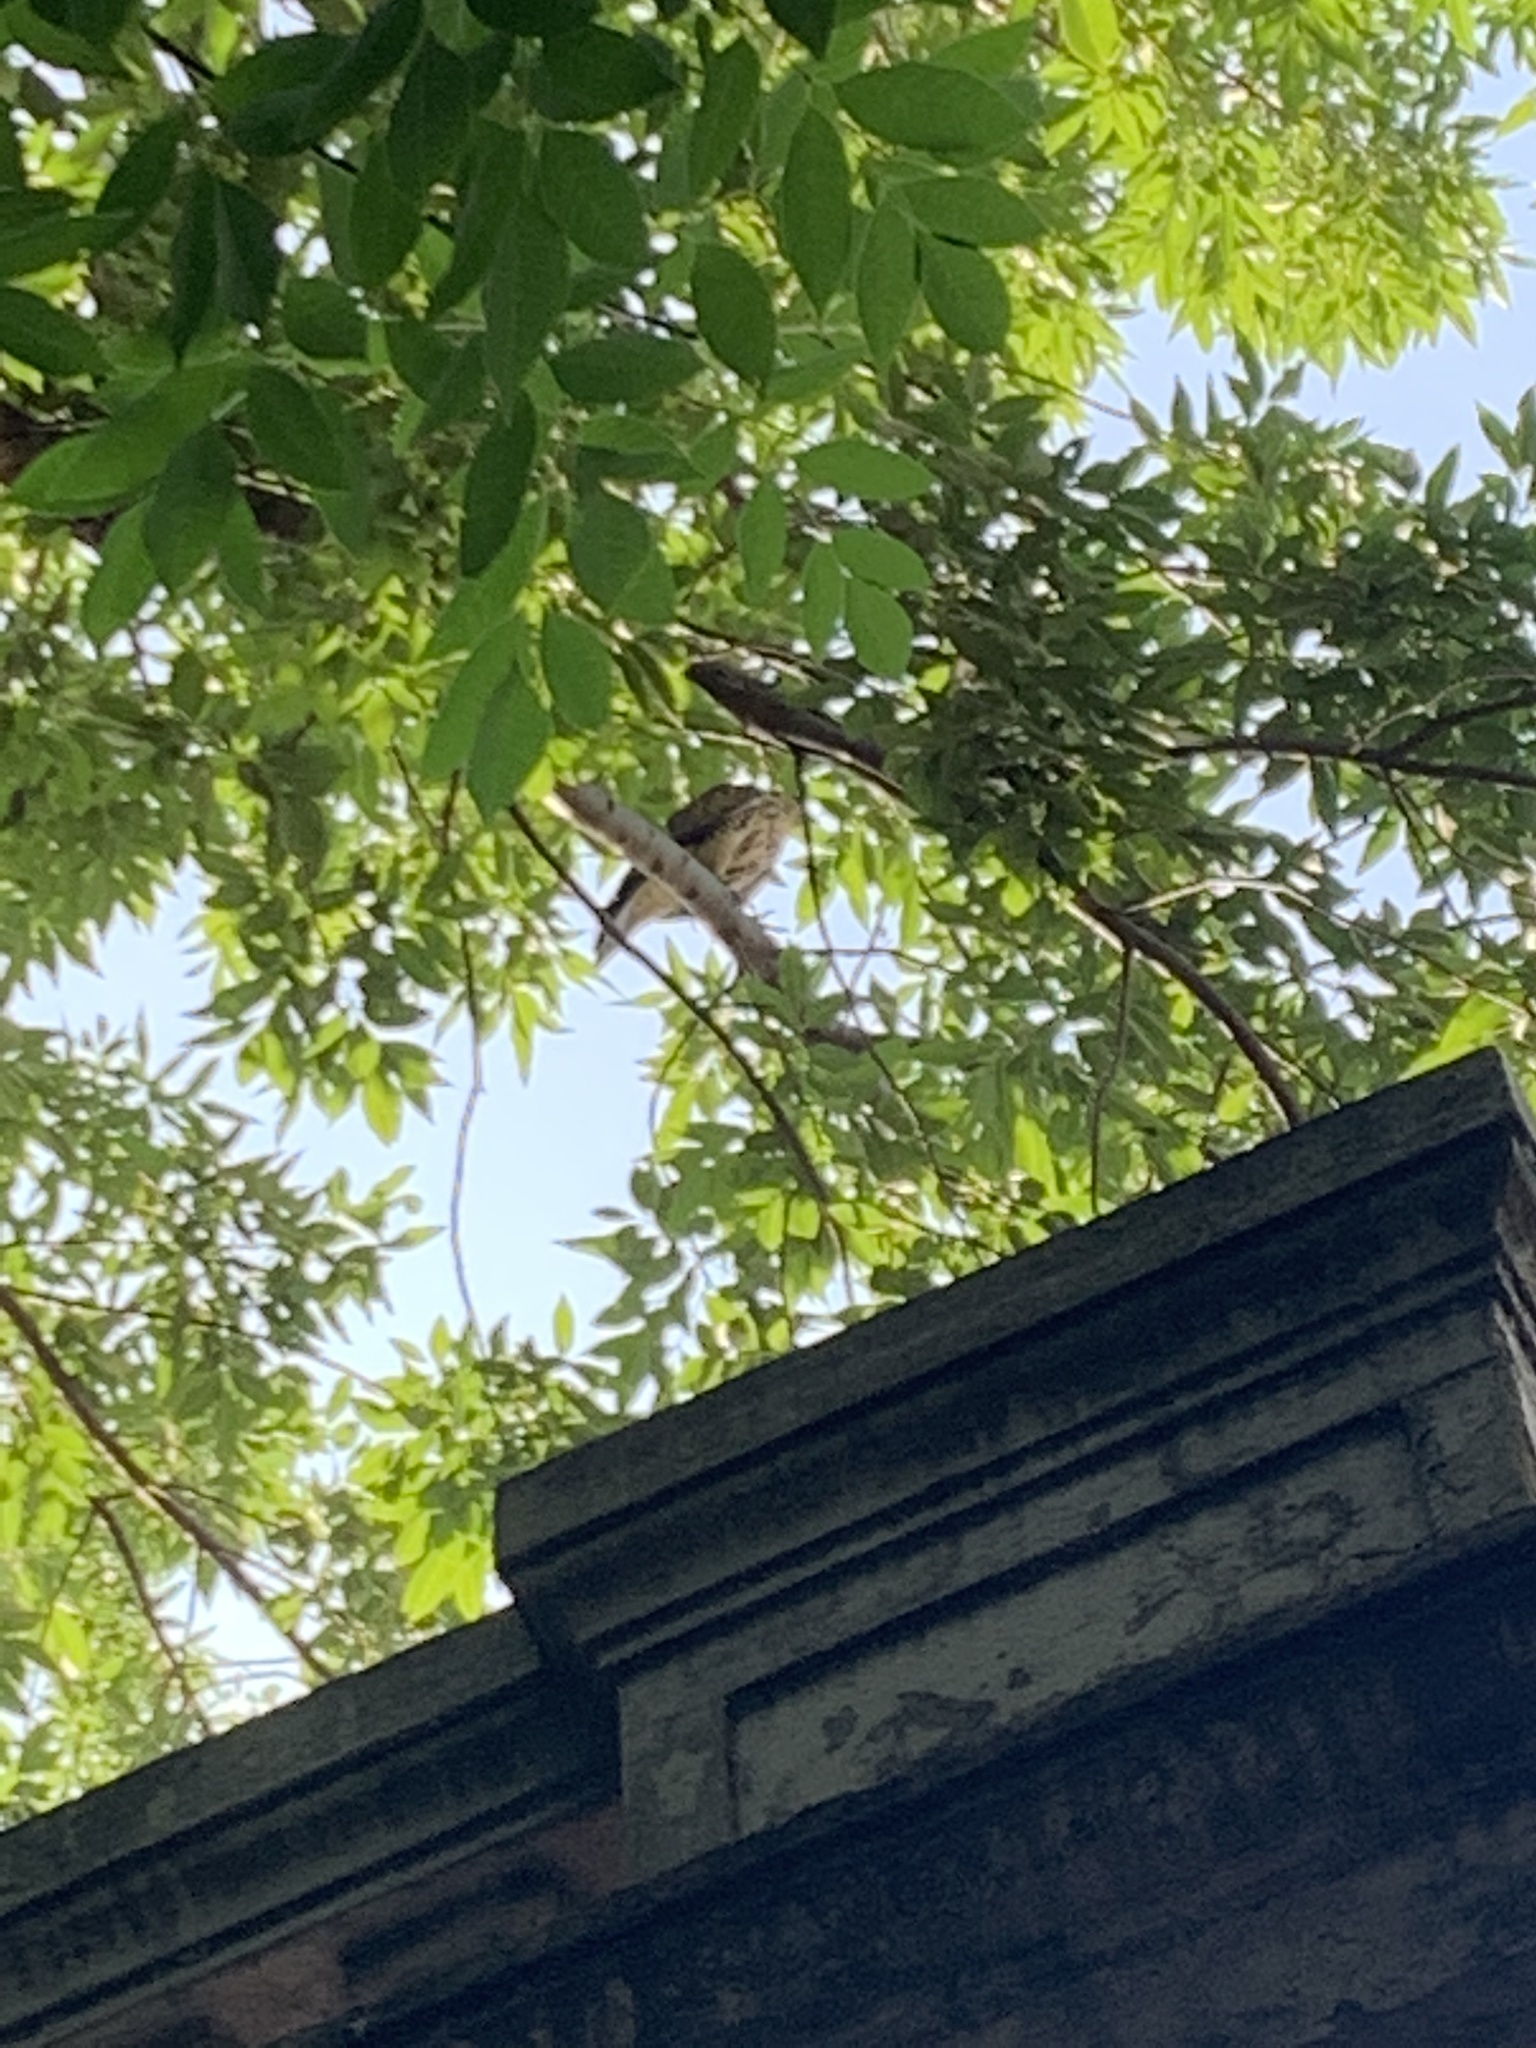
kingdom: Animalia
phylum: Chordata
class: Aves
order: Accipitriformes
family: Accipitridae
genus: Parabuteo
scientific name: Parabuteo unicinctus
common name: Harris's hawk
